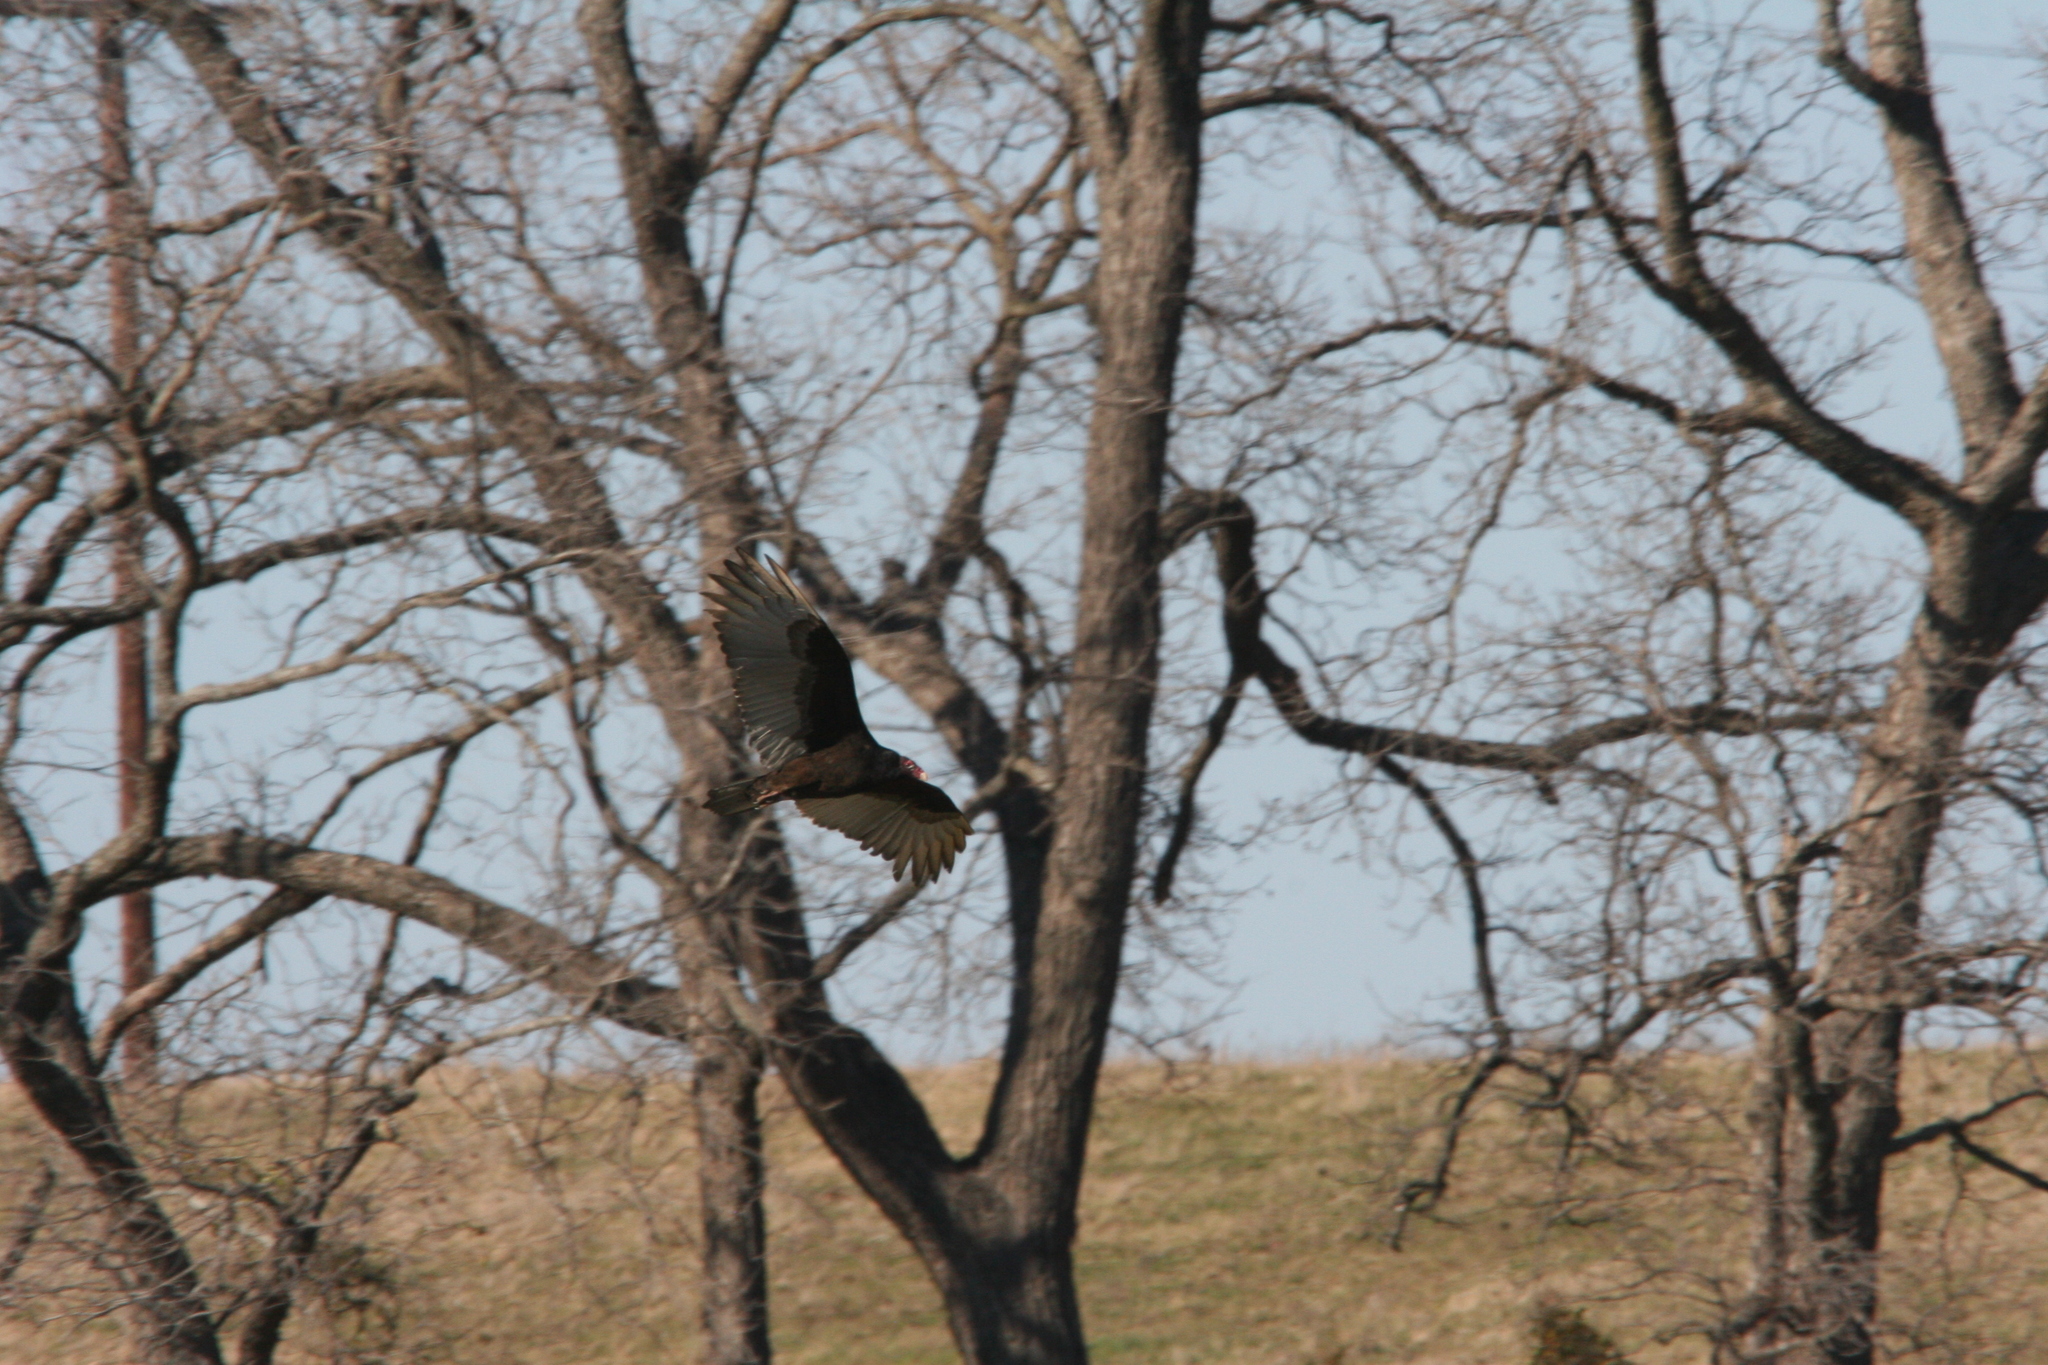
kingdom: Animalia
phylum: Chordata
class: Aves
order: Accipitriformes
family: Cathartidae
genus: Cathartes
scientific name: Cathartes aura
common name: Turkey vulture
